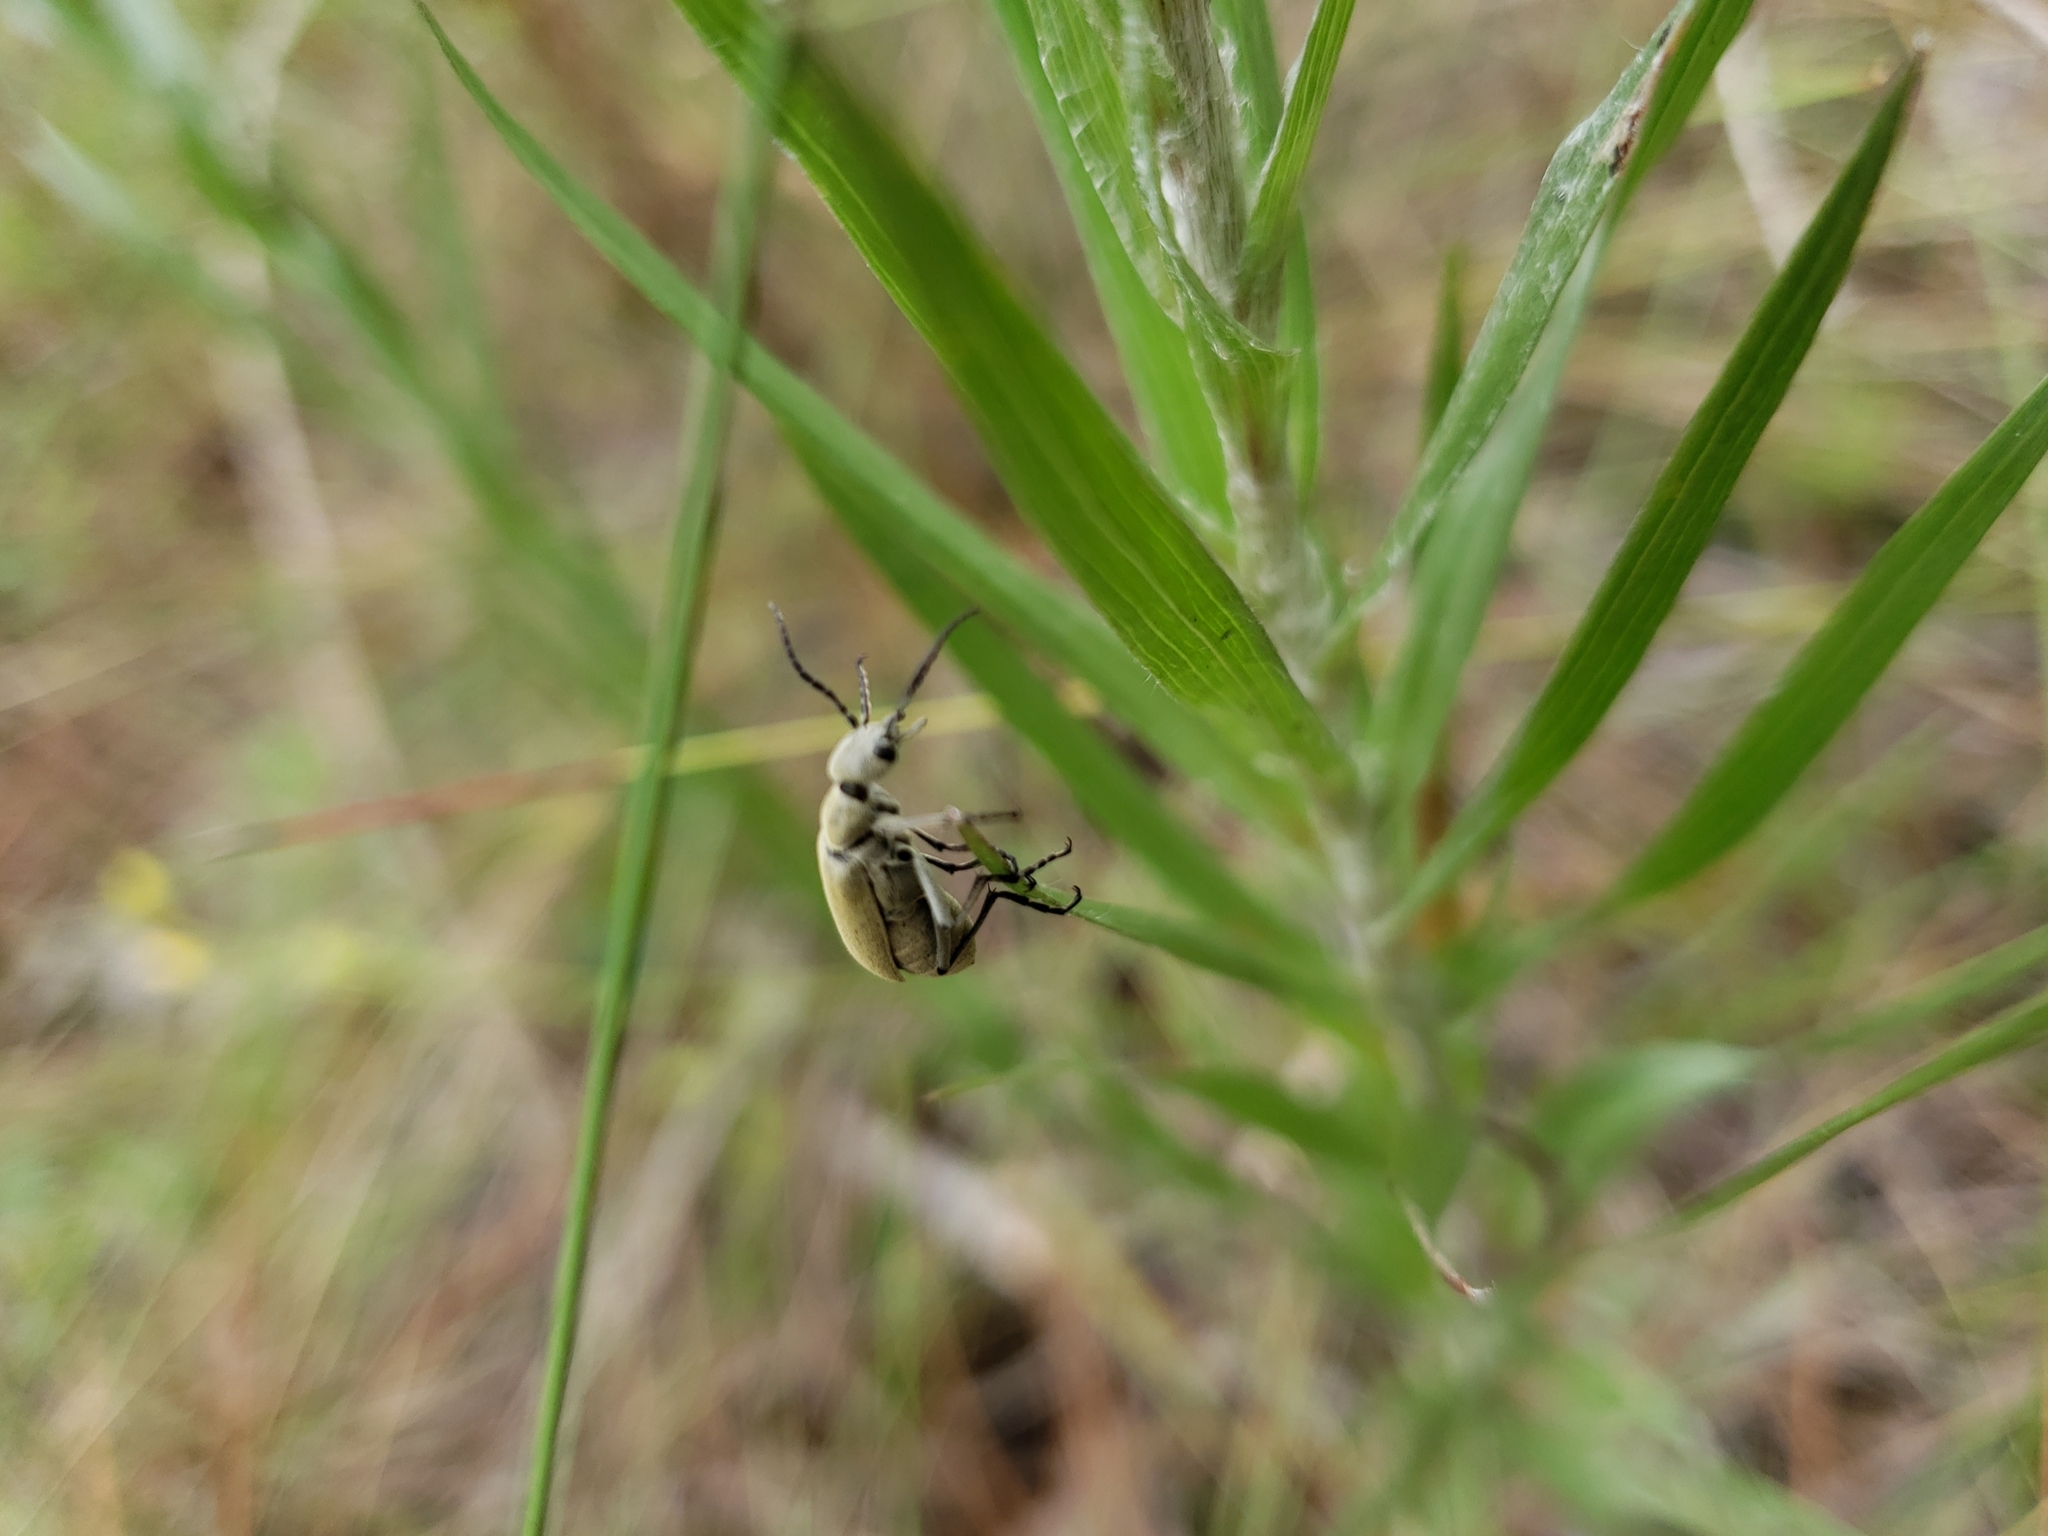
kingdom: Plantae
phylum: Tracheophyta
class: Magnoliopsida
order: Asterales
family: Asteraceae
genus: Pityopsis
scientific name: Pityopsis graminifolia
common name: Grass-leaf golden-aster
